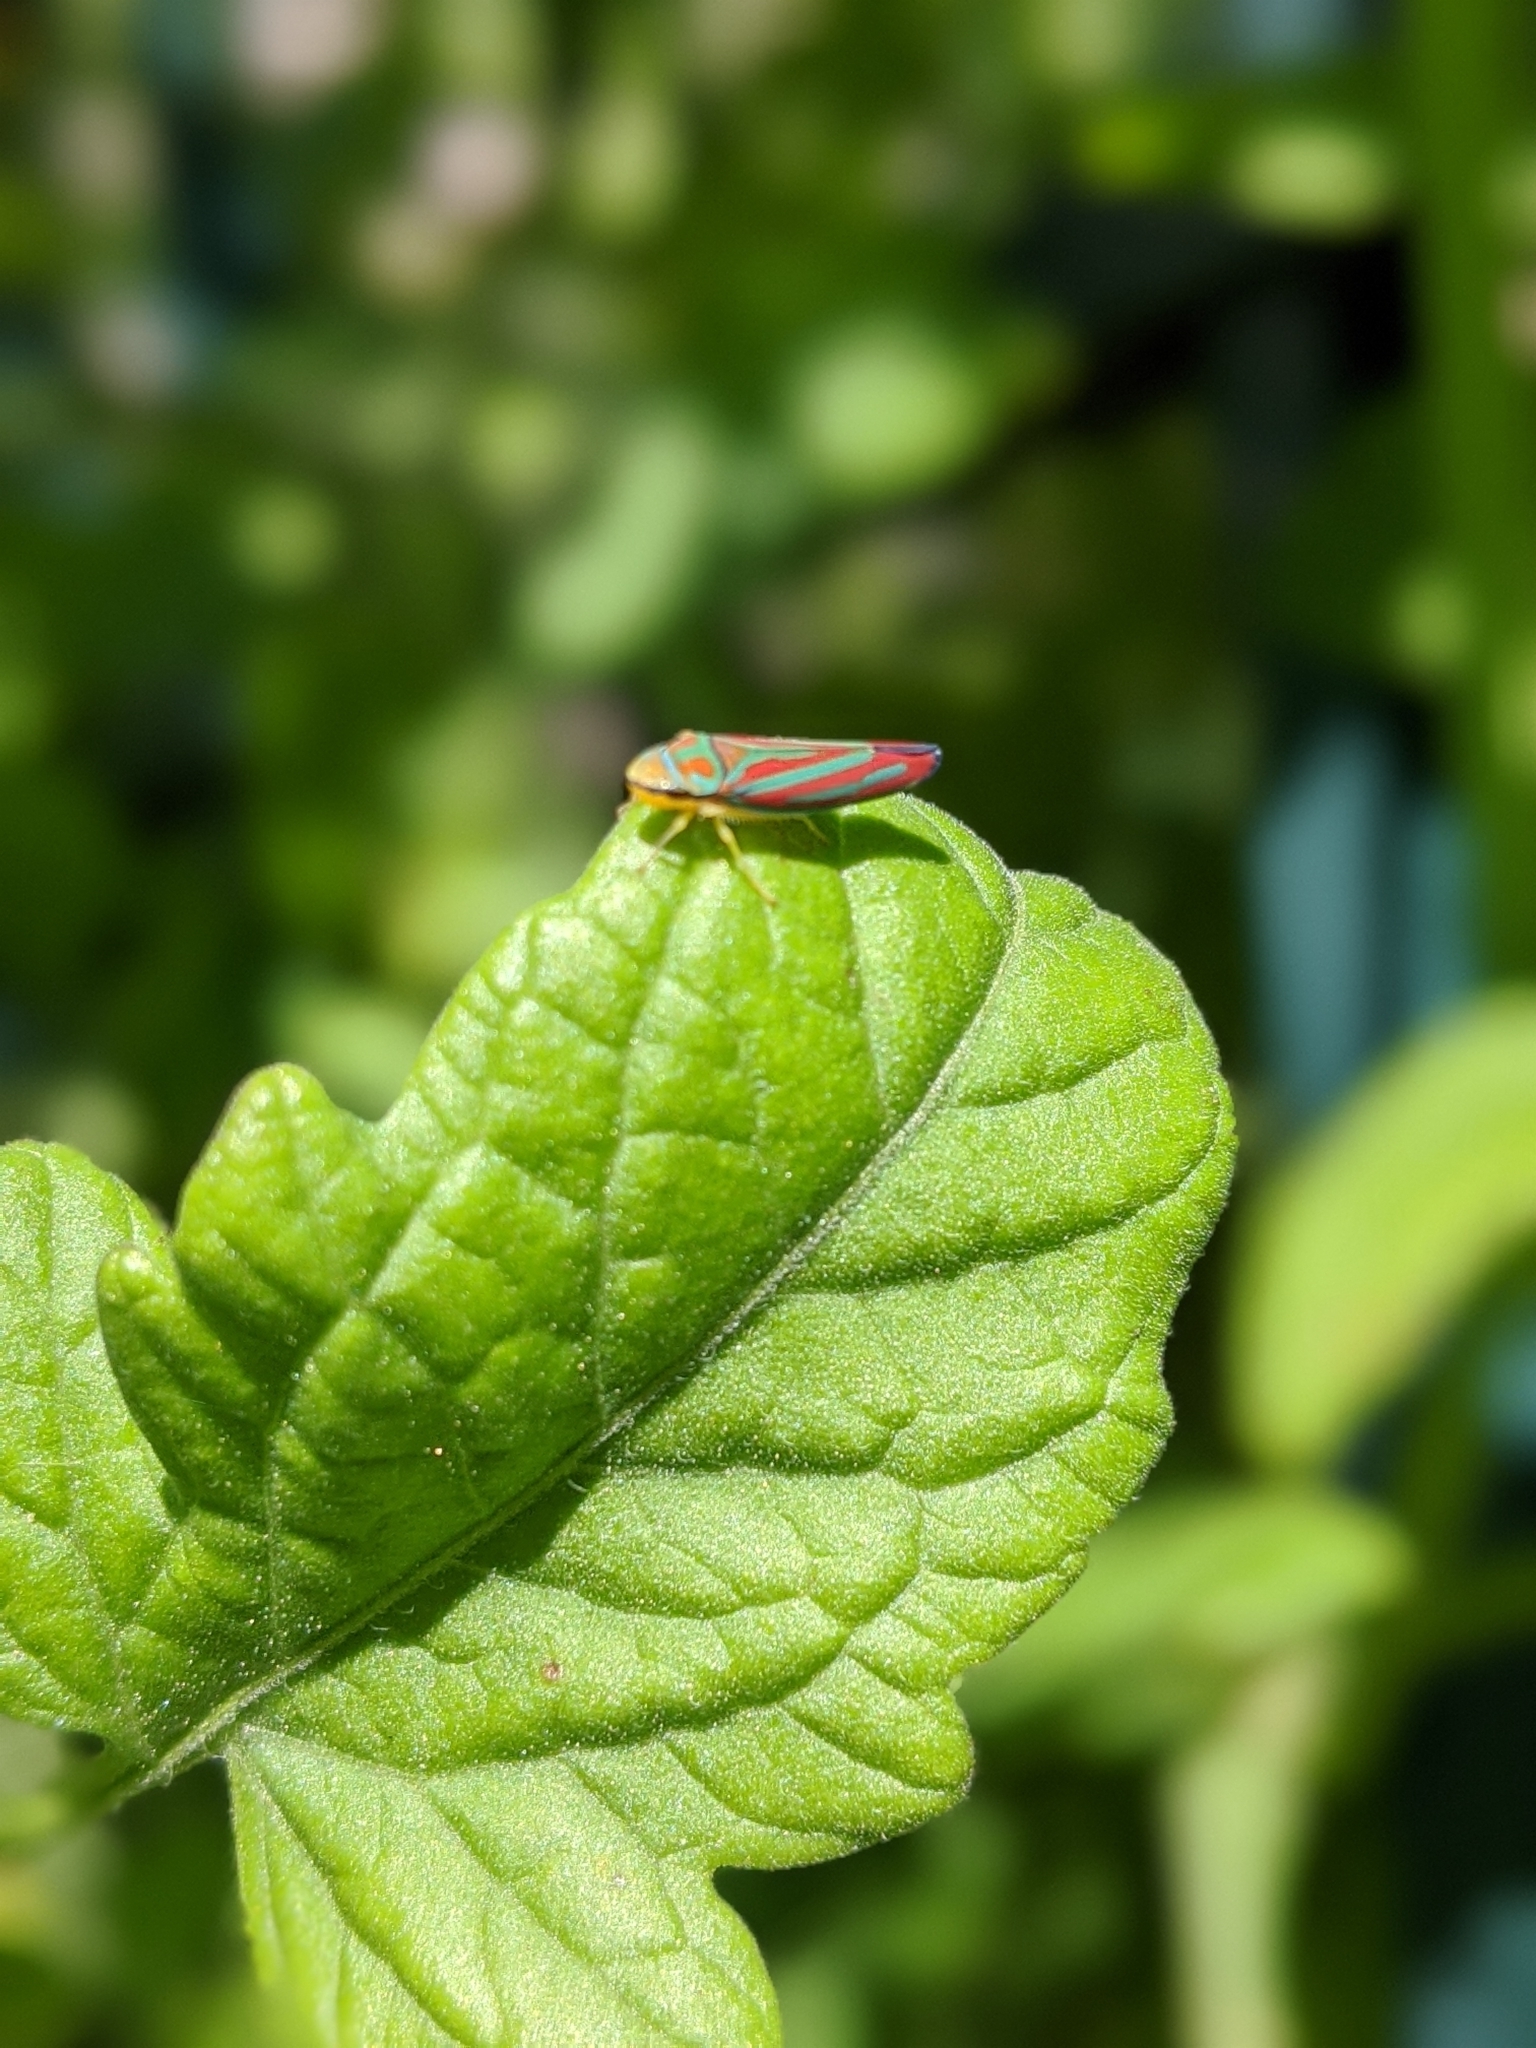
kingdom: Animalia
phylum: Arthropoda
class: Insecta
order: Hemiptera
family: Cicadellidae
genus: Graphocephala
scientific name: Graphocephala coccinea
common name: Candy-striped leafhopper
